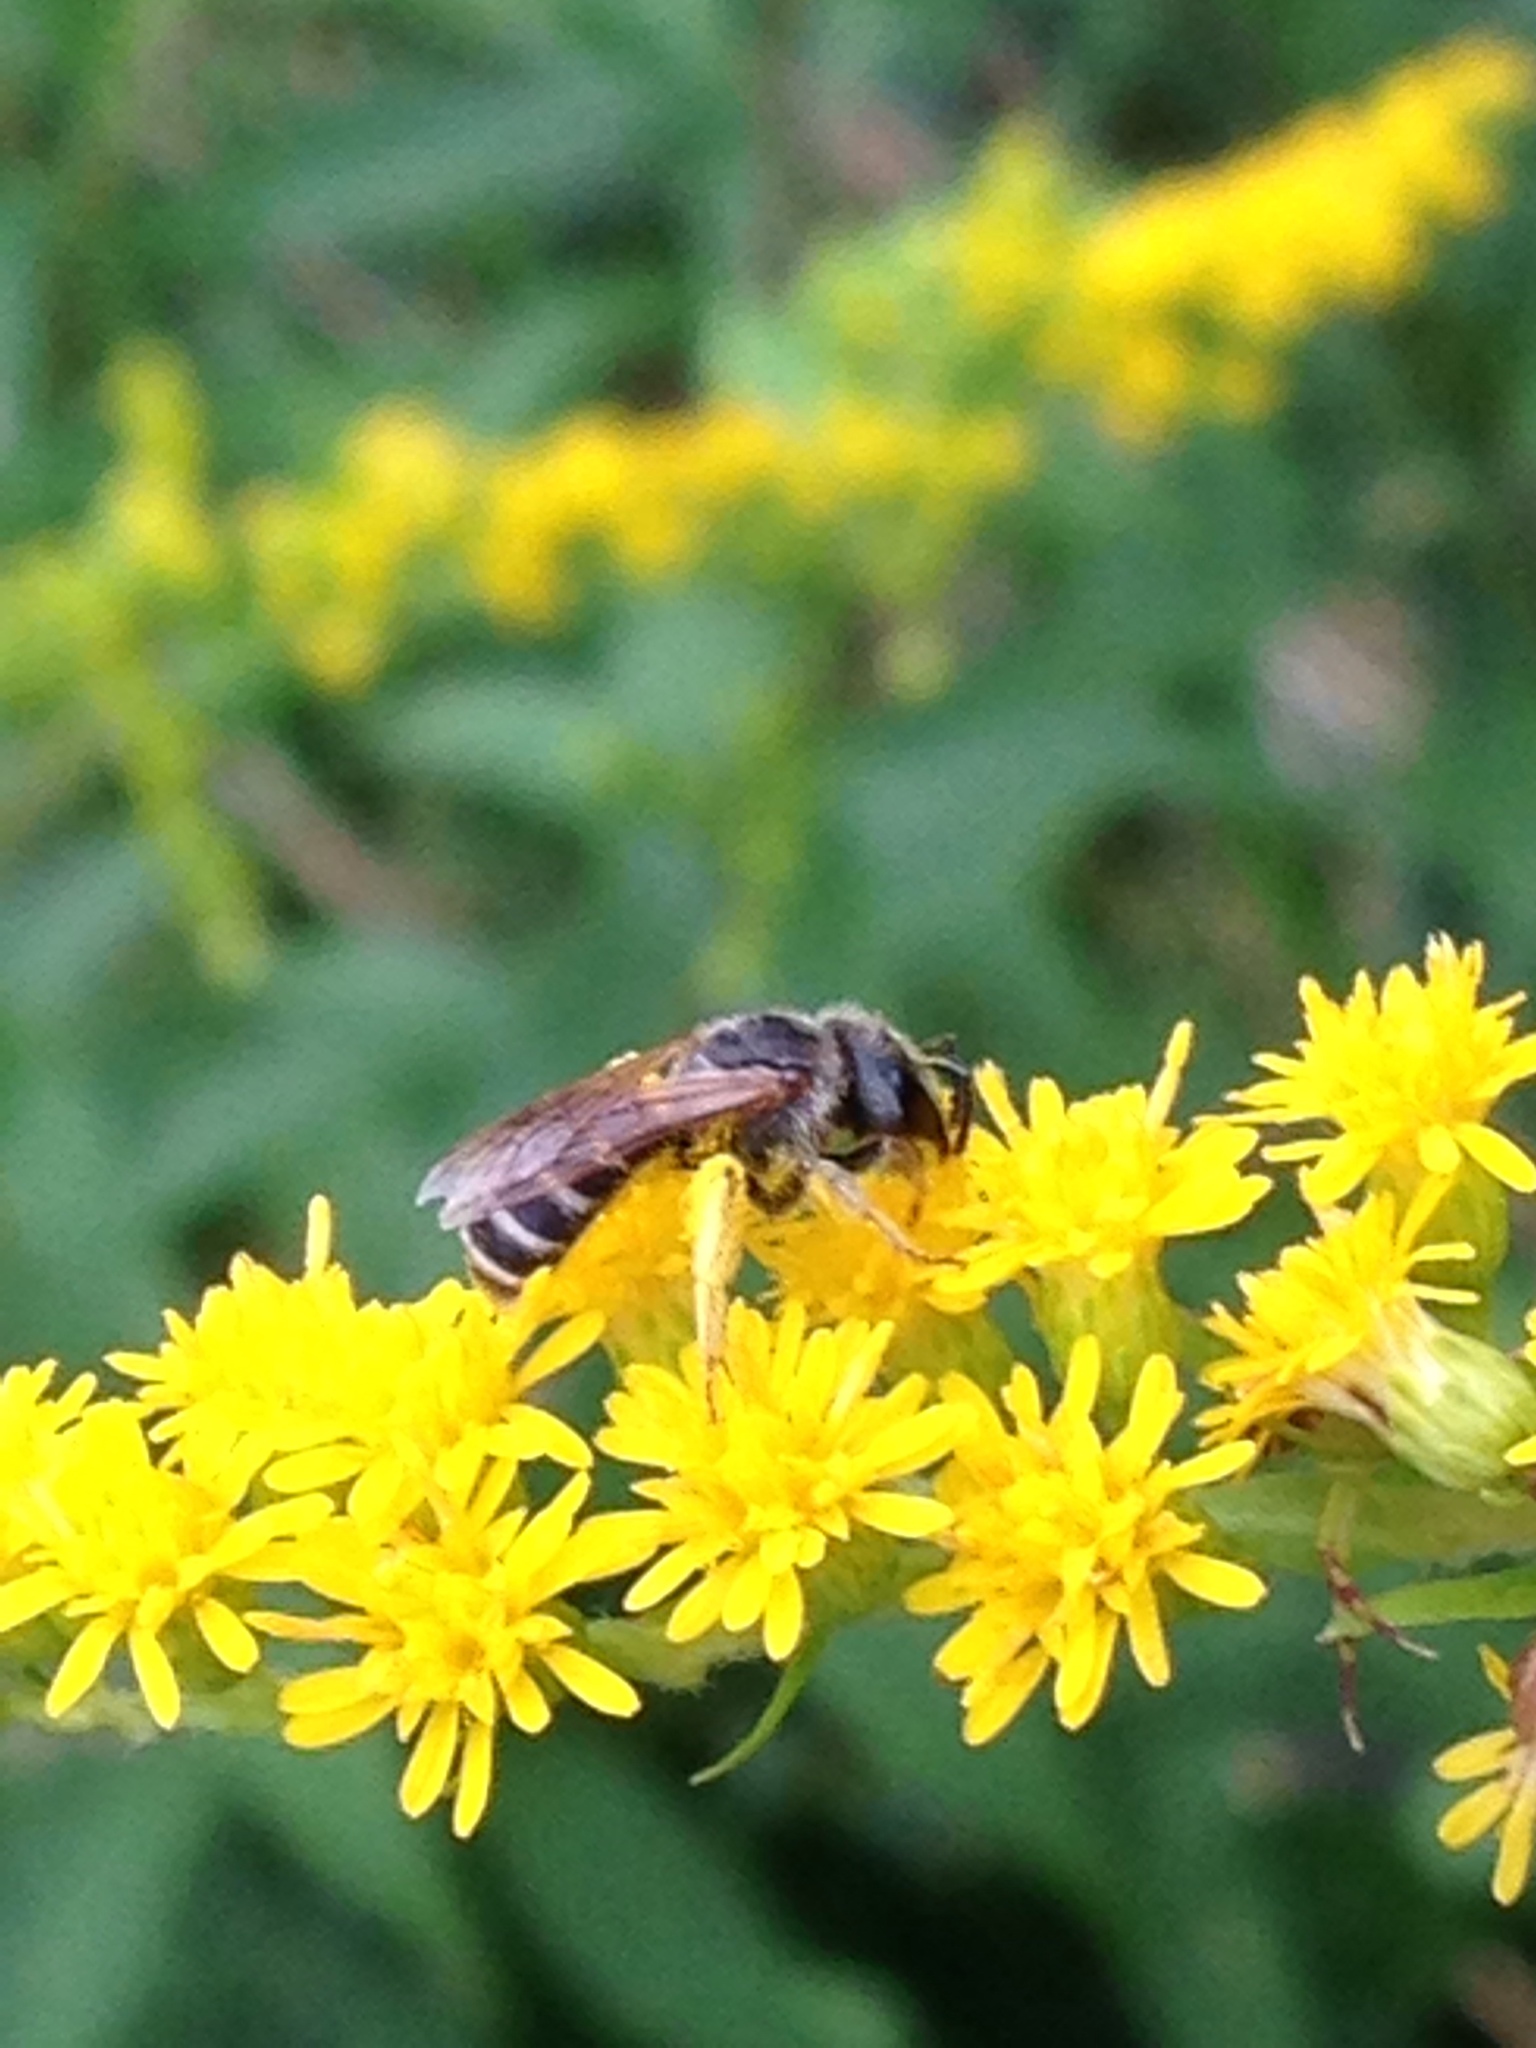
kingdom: Animalia
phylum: Arthropoda
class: Insecta
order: Hymenoptera
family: Halictidae
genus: Halictus
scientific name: Halictus ligatus
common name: Ligated furrow bee
